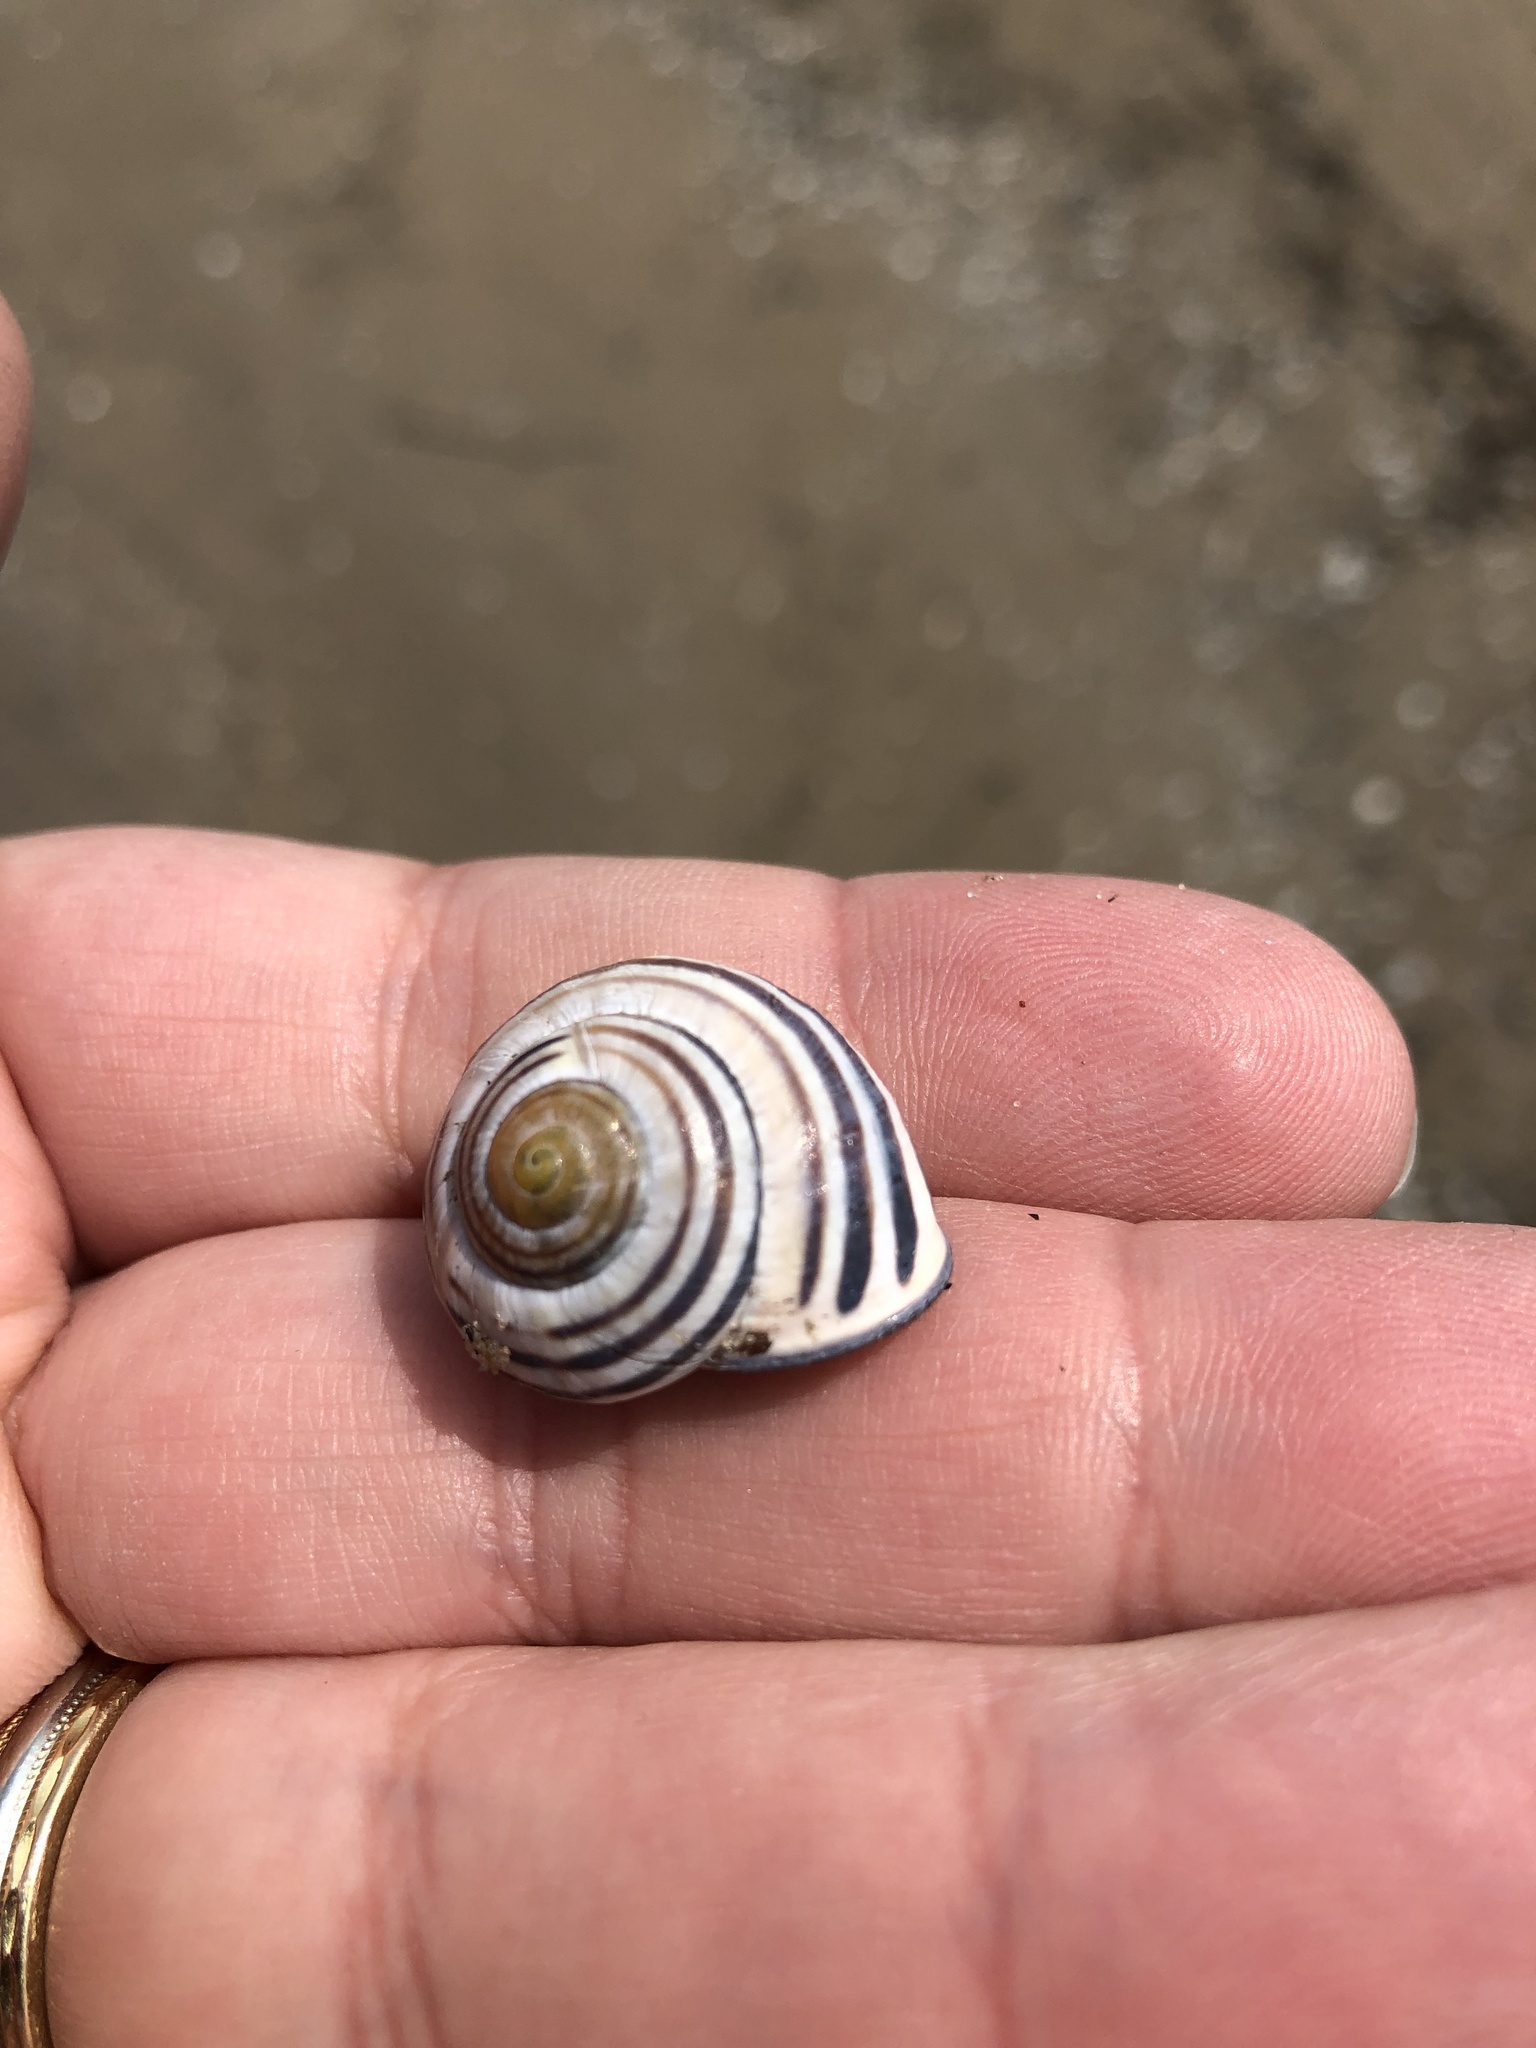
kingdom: Animalia
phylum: Mollusca
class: Gastropoda
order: Stylommatophora
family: Helicidae
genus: Cepaea
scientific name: Cepaea nemoralis
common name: Grovesnail
